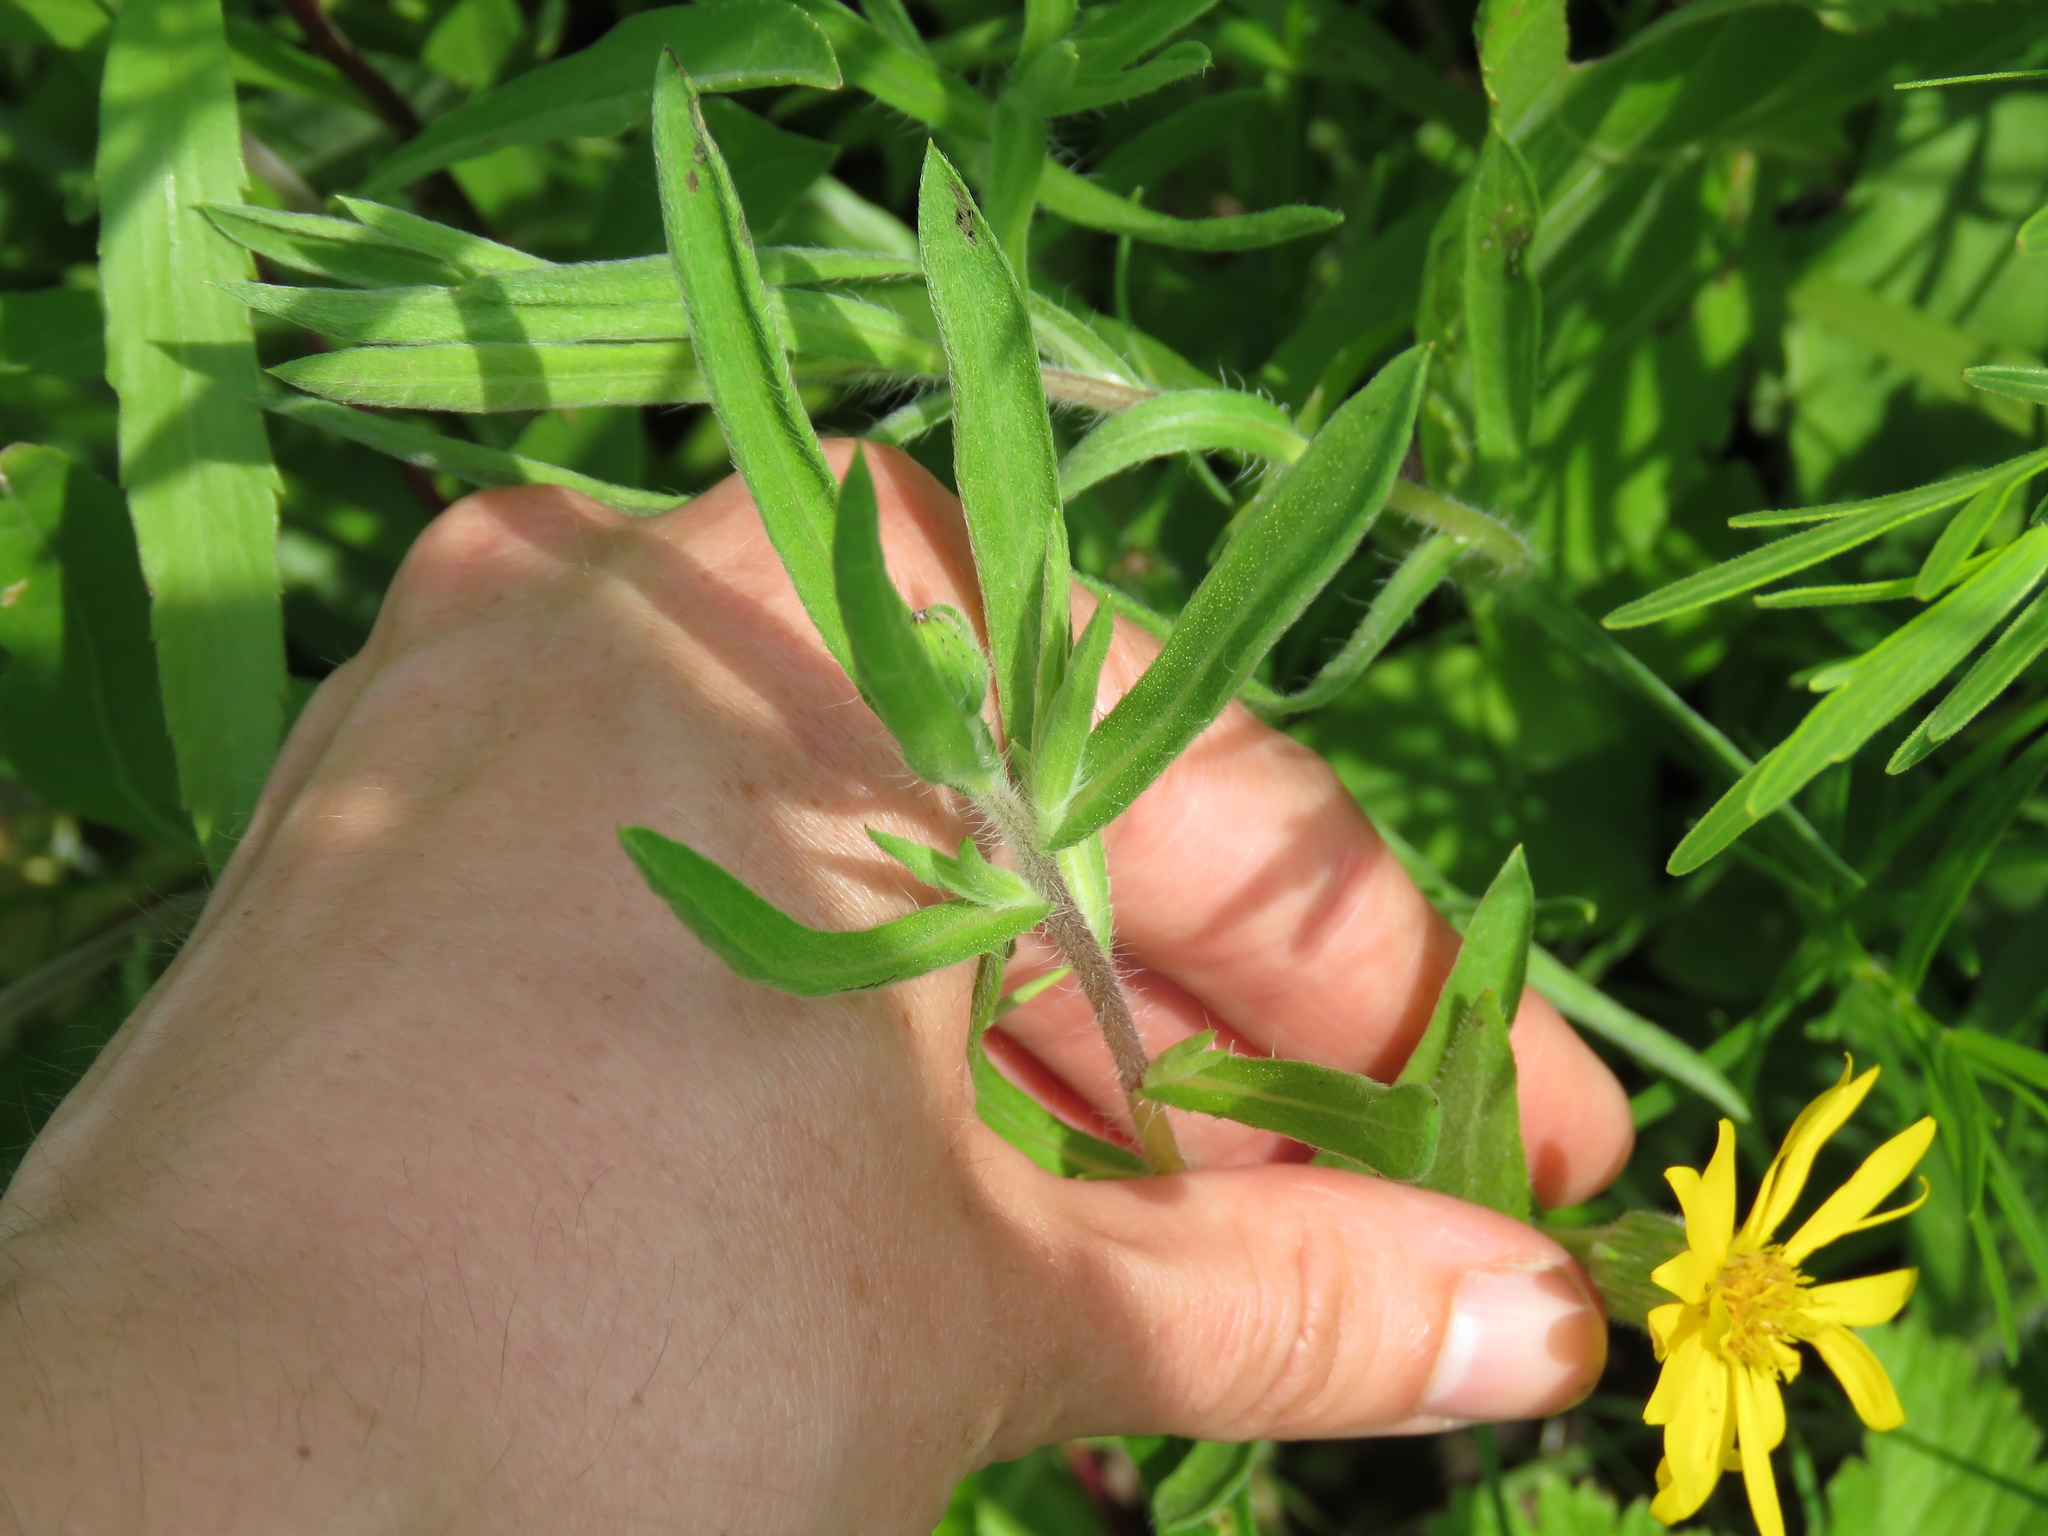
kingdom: Plantae
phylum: Tracheophyta
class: Magnoliopsida
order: Asterales
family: Asteraceae
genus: Heterotheca
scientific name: Heterotheca camporum
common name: Prairie golden-aster
